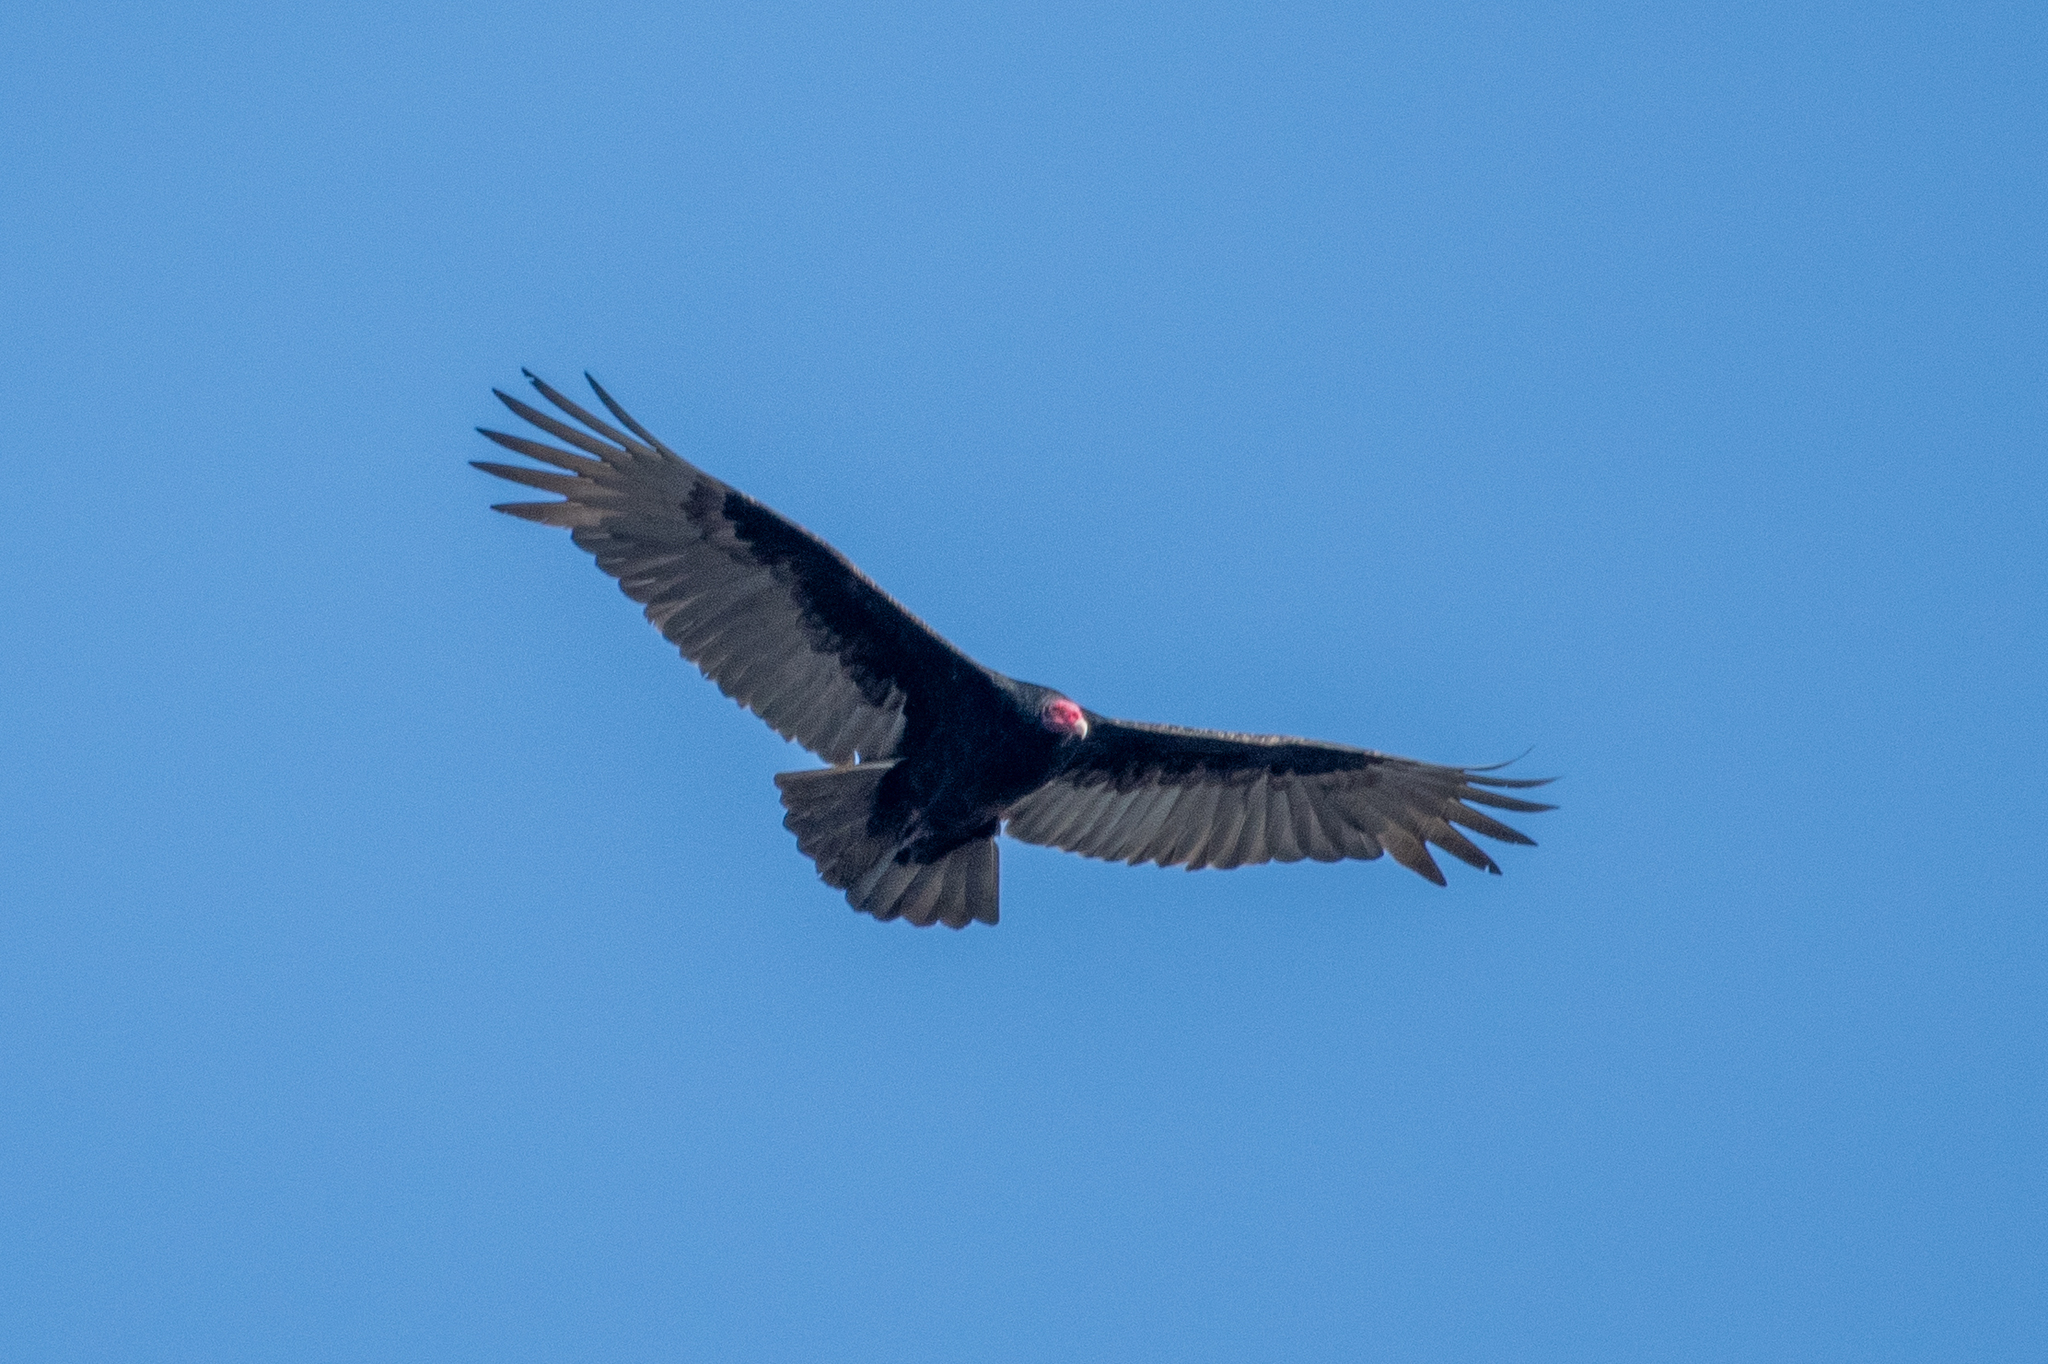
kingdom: Animalia
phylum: Chordata
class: Aves
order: Accipitriformes
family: Cathartidae
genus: Cathartes
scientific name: Cathartes aura
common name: Turkey vulture
